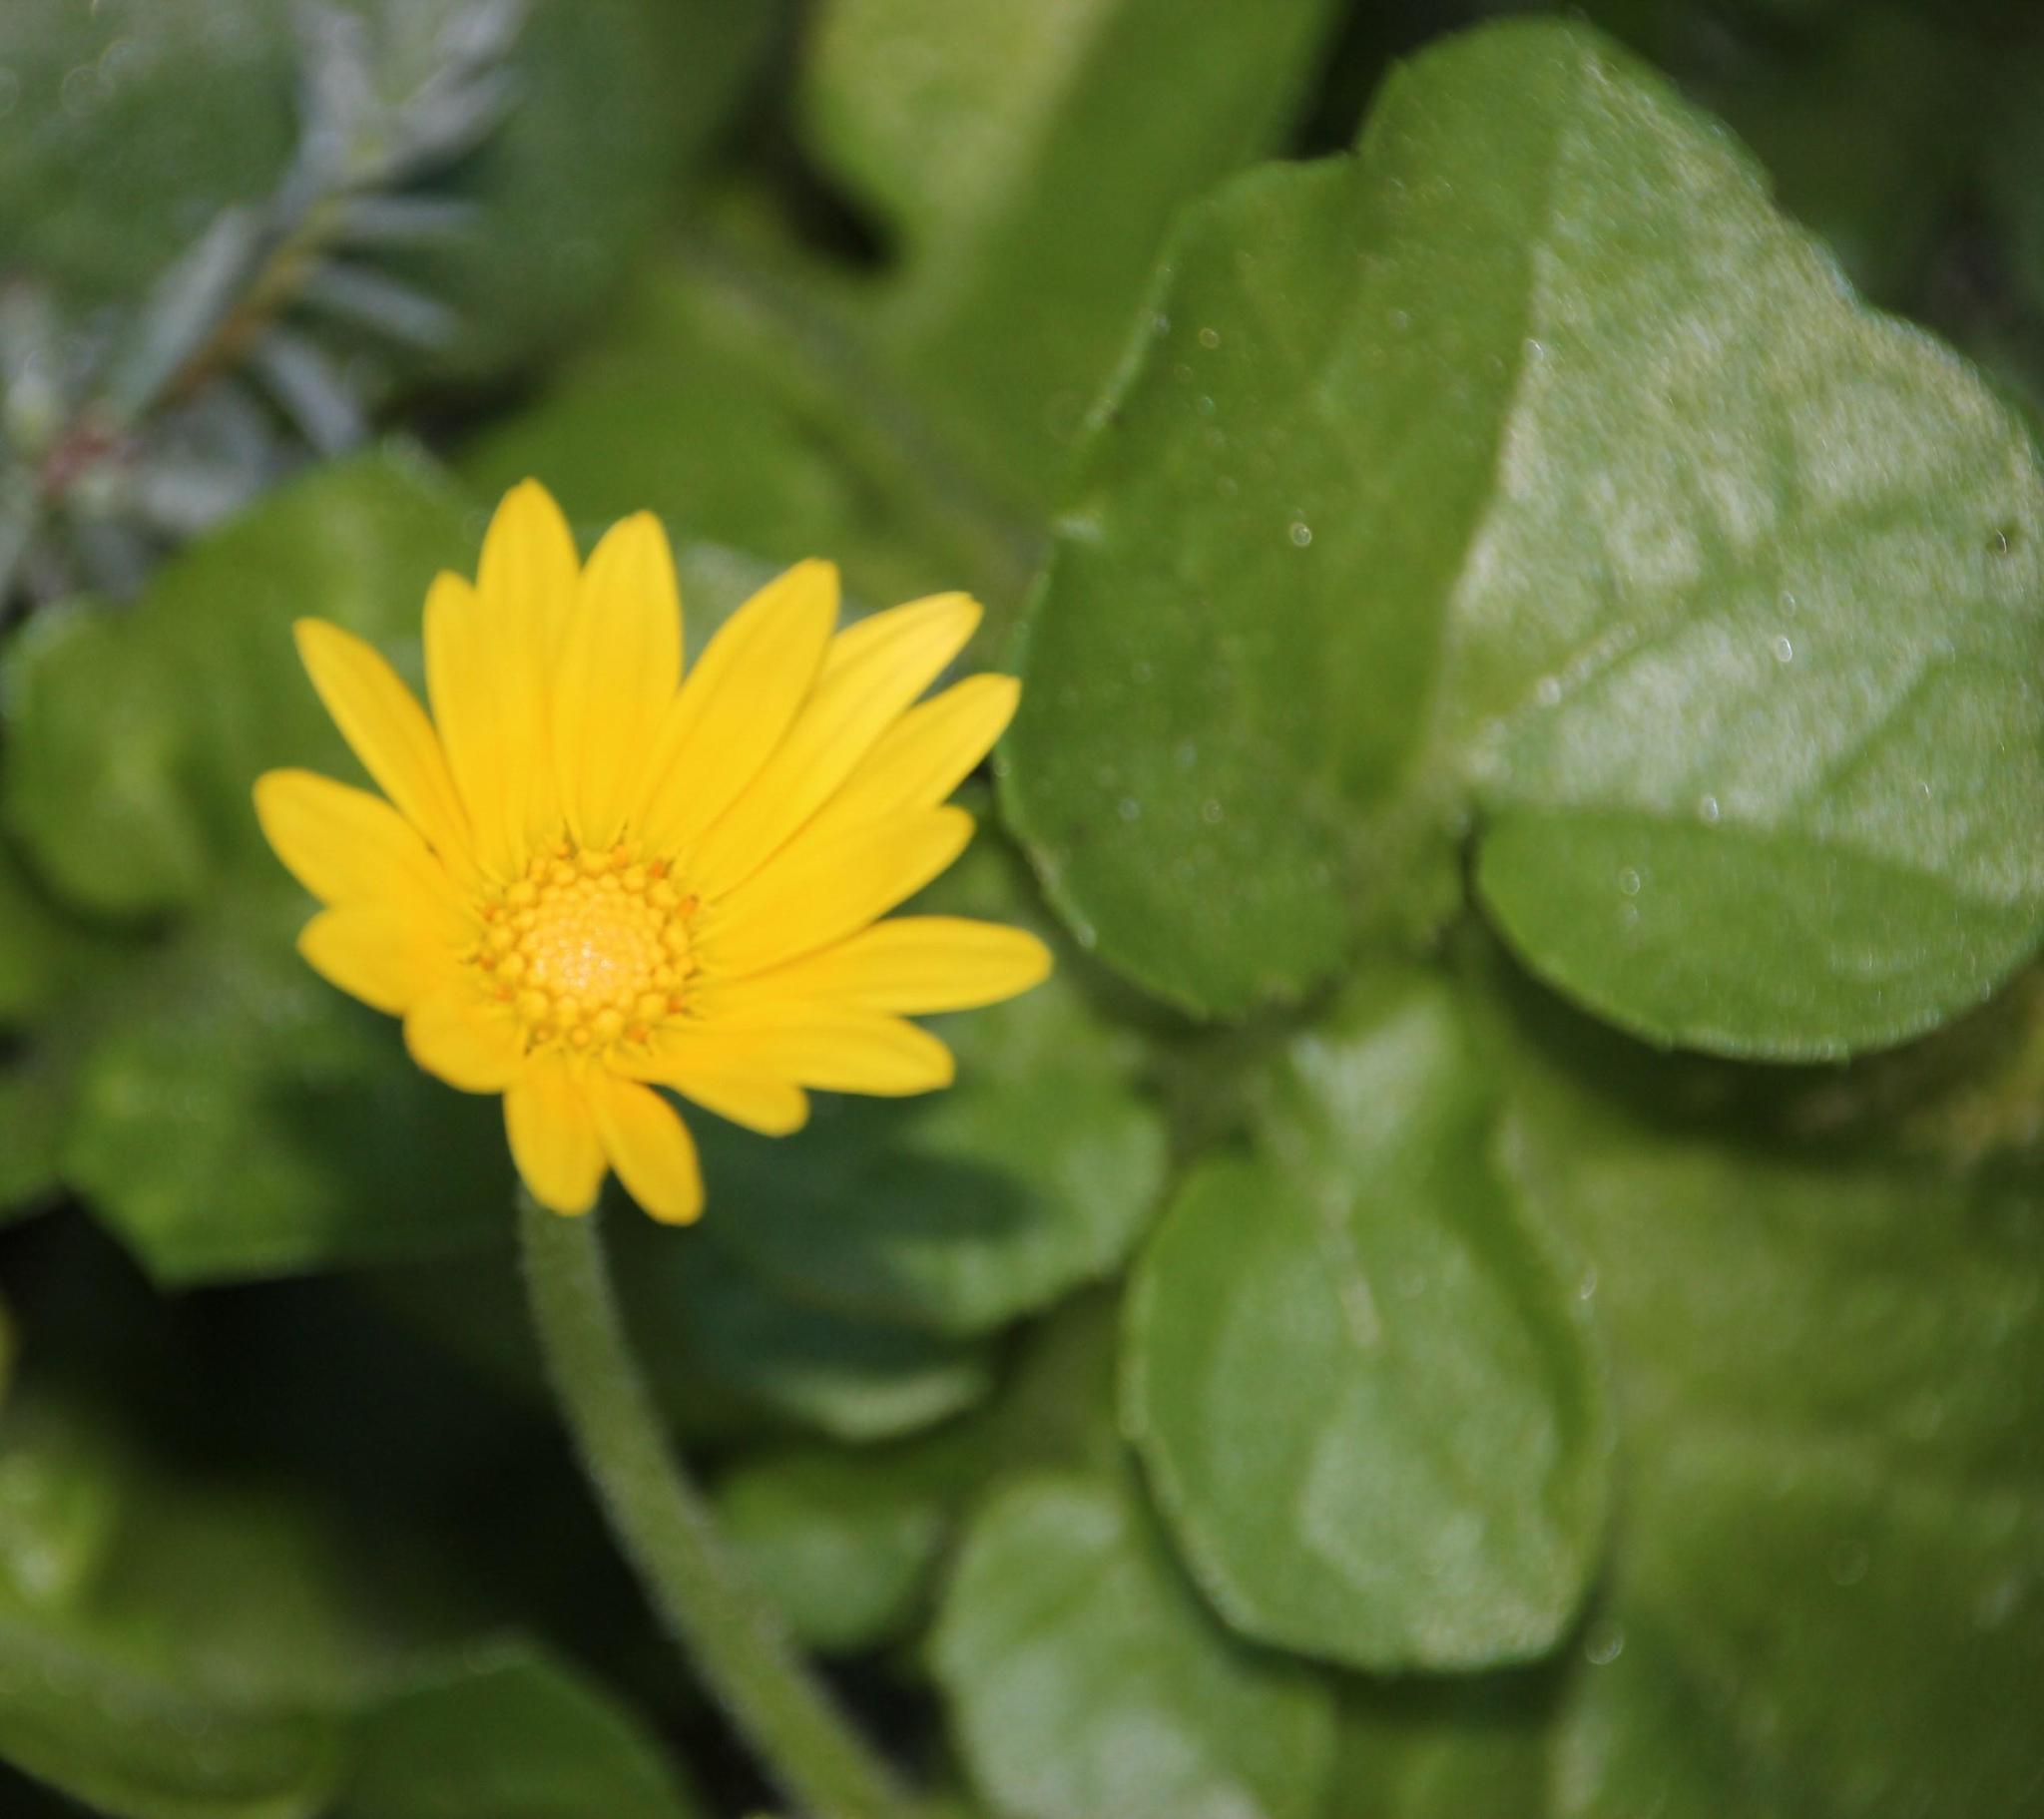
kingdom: Plantae
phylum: Tracheophyta
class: Magnoliopsida
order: Asterales
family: Asteraceae
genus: Arctotheca
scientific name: Arctotheca prostrata
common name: Capeweed
